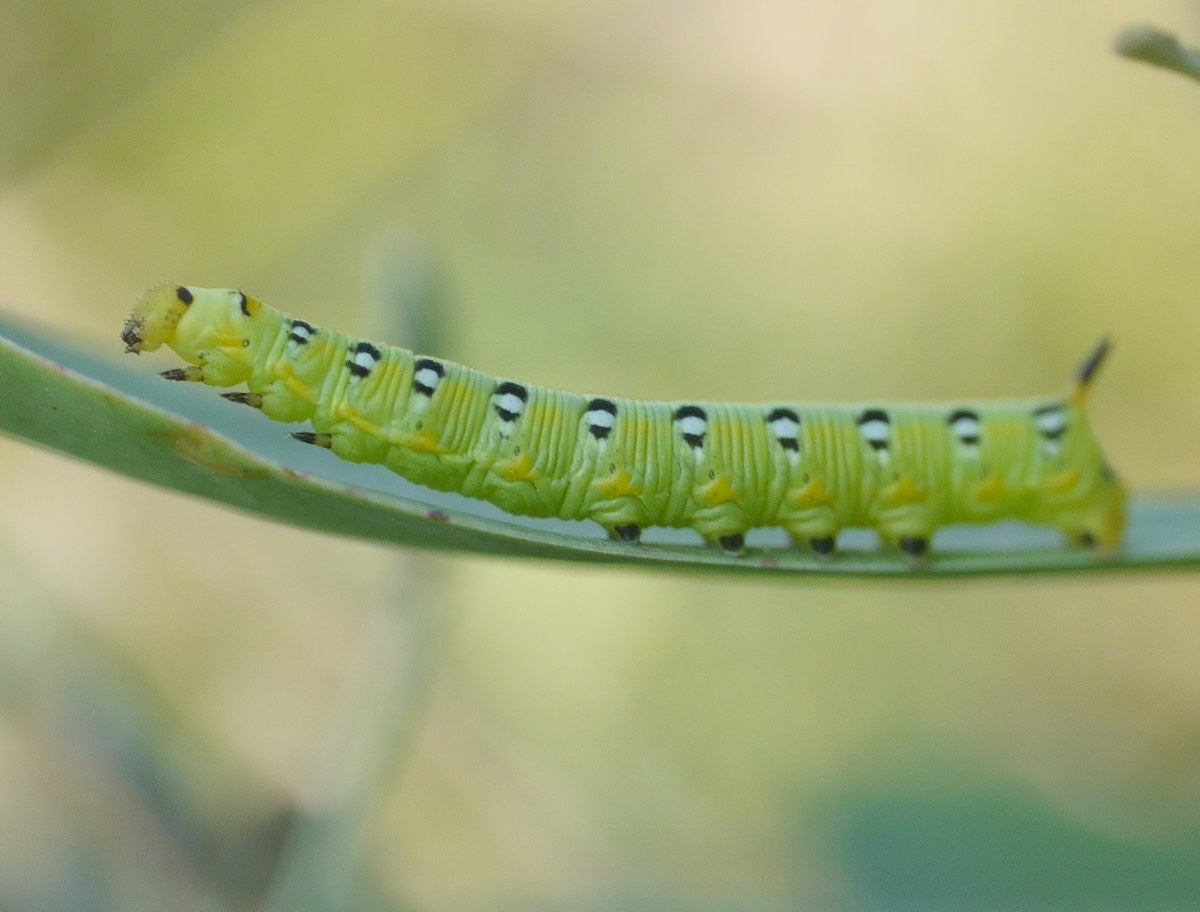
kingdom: Animalia
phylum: Arthropoda
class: Insecta
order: Lepidoptera
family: Sphingidae
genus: Hyles
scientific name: Hyles euphorbiae
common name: Spurge hawk-moth
